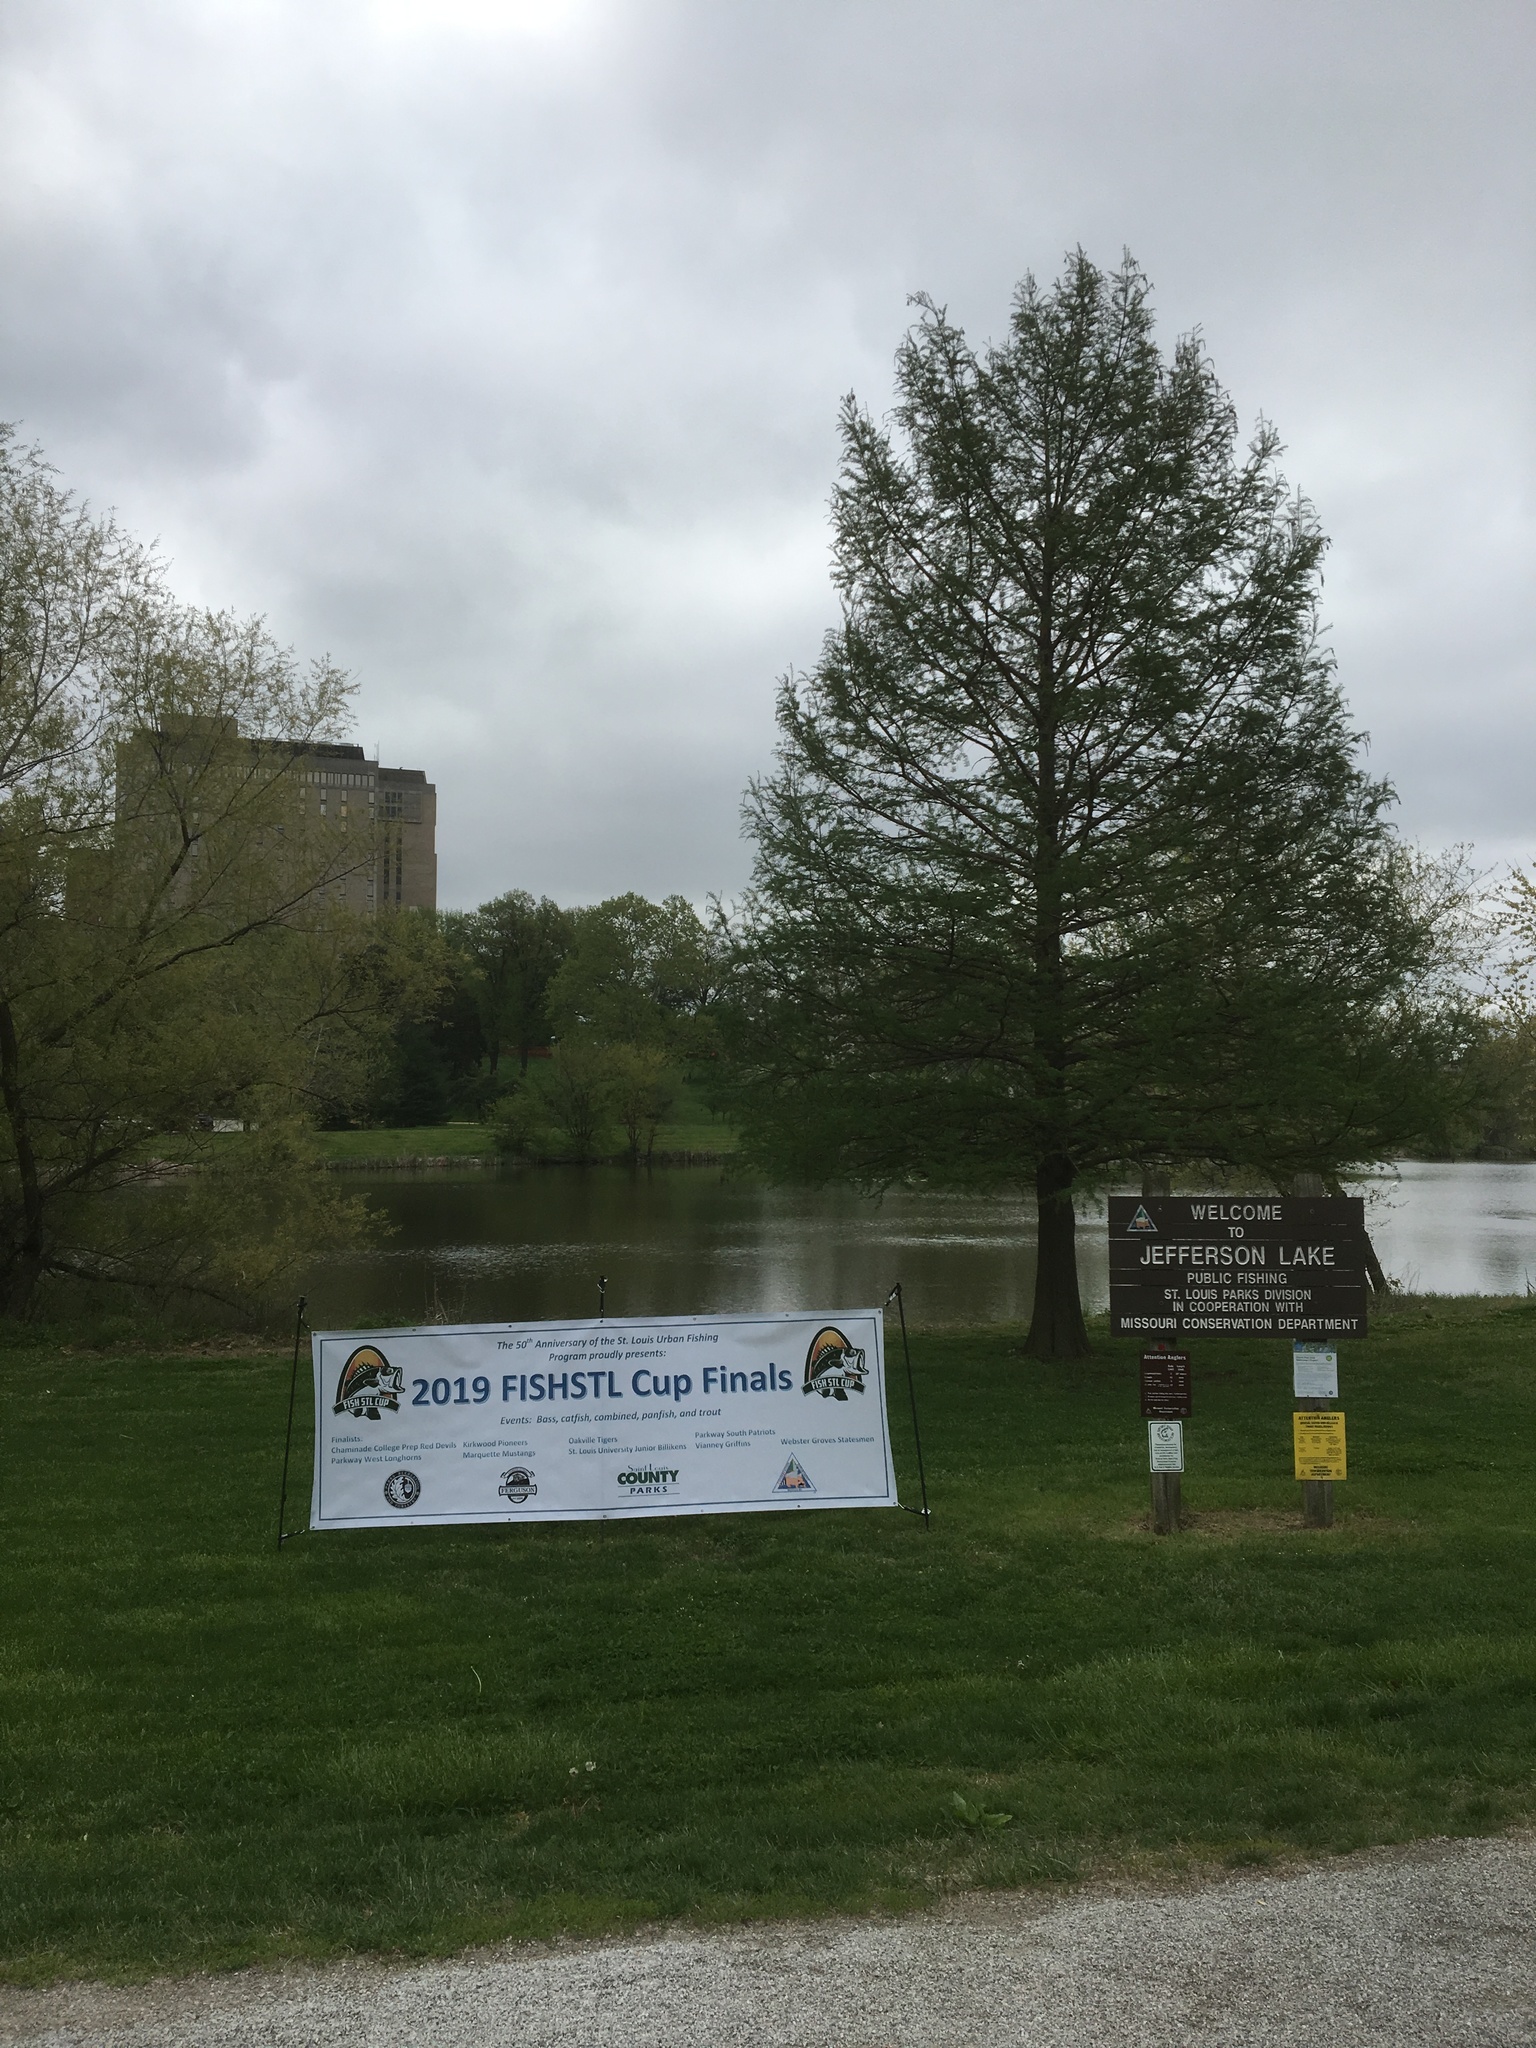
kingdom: Plantae
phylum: Tracheophyta
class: Pinopsida
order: Pinales
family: Cupressaceae
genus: Taxodium
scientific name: Taxodium distichum
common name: Bald cypress
